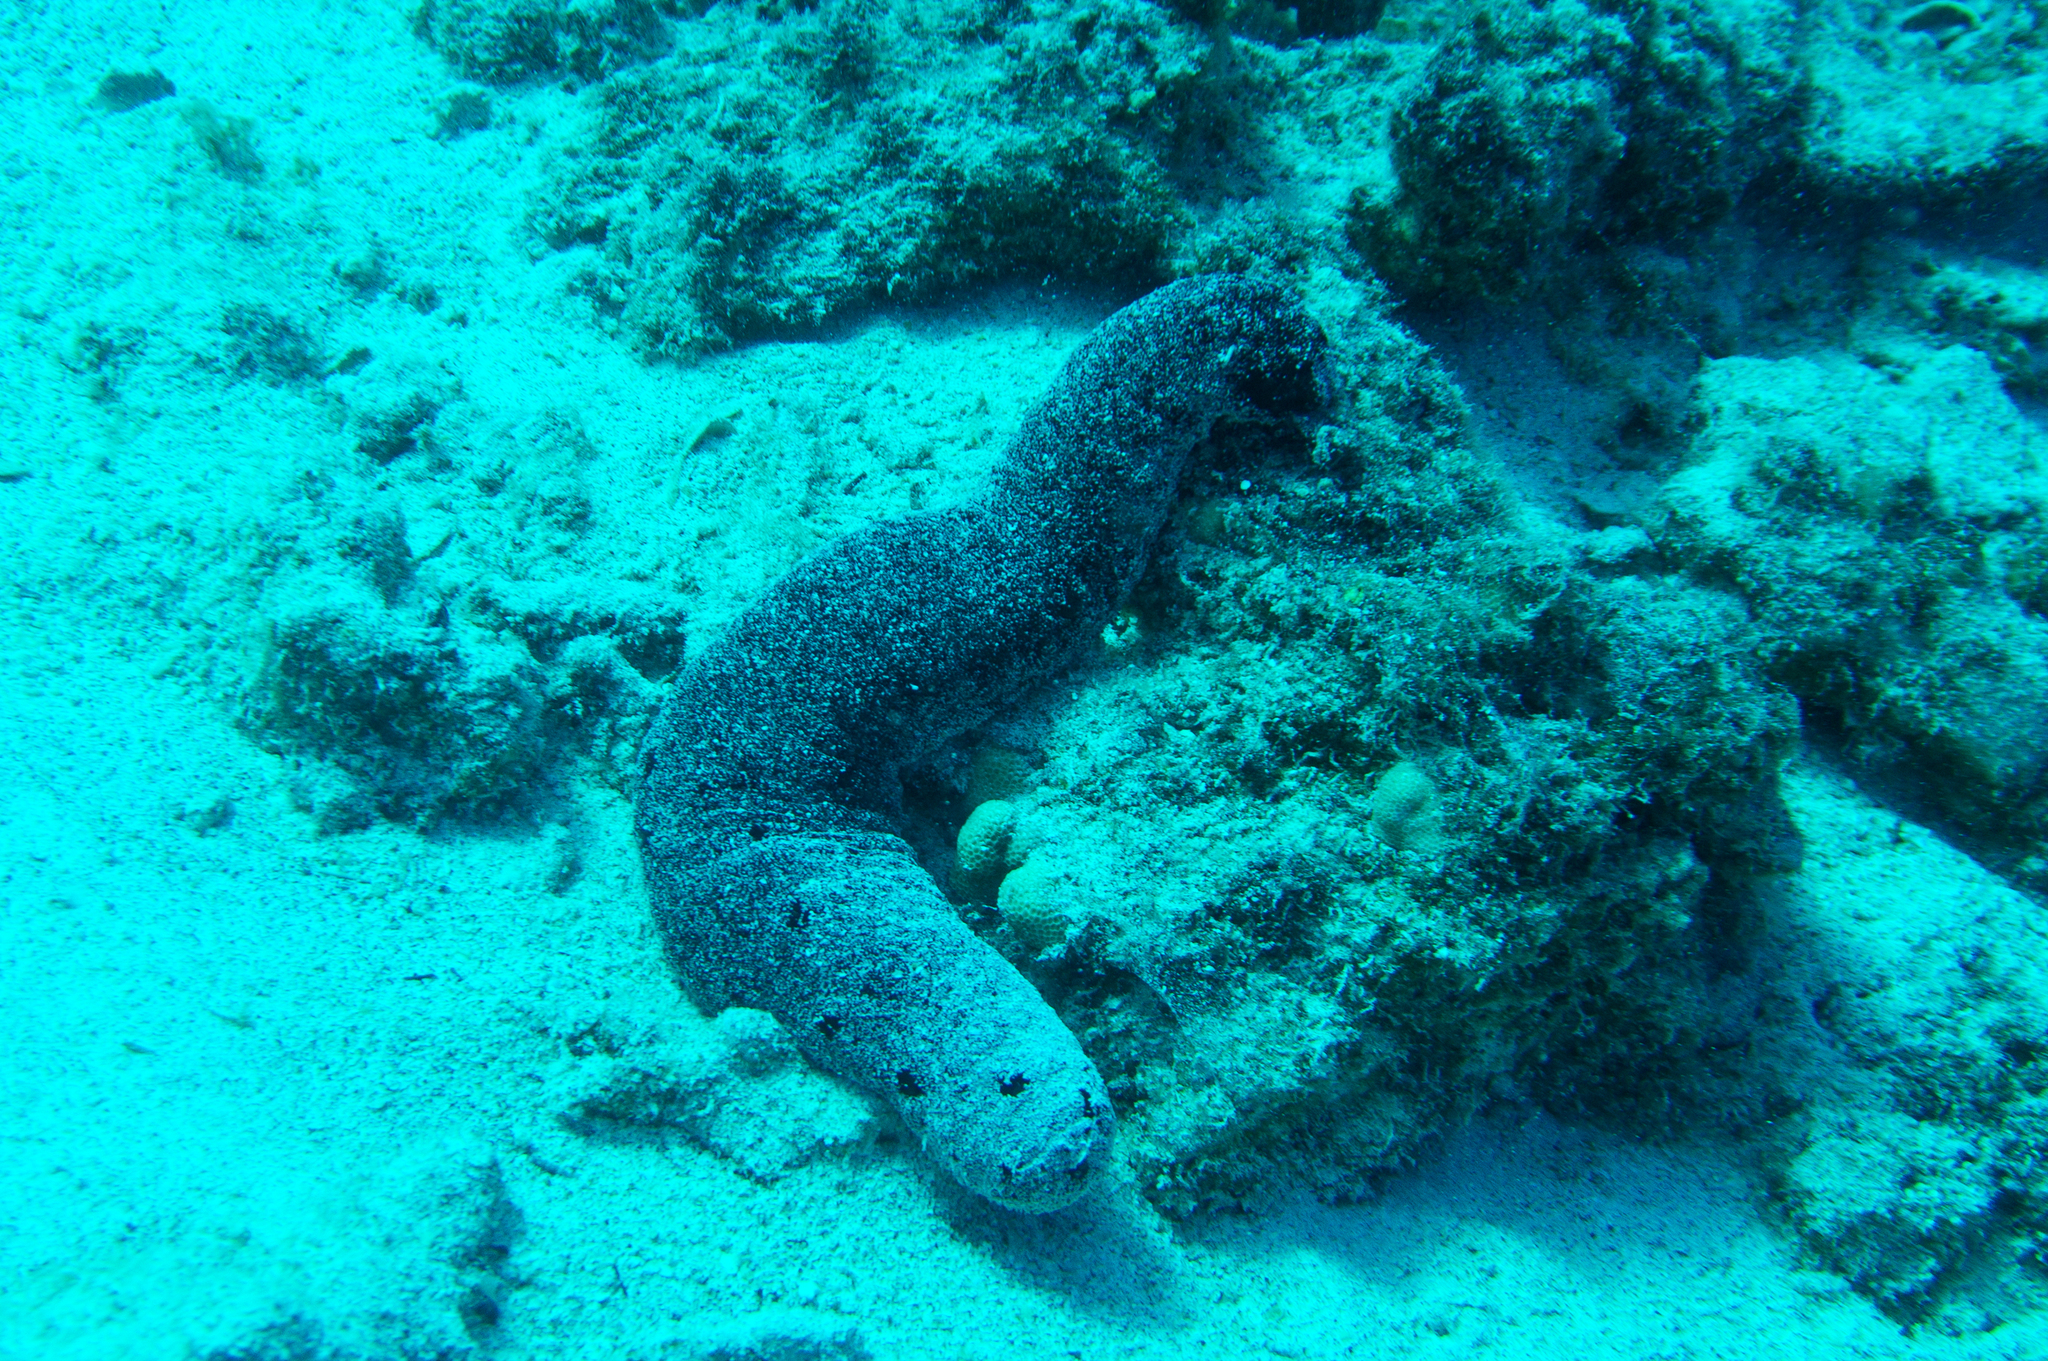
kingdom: Animalia
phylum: Echinodermata
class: Holothuroidea
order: Holothuriida
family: Holothuriidae
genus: Holothuria
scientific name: Holothuria atra
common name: Lollyfish
